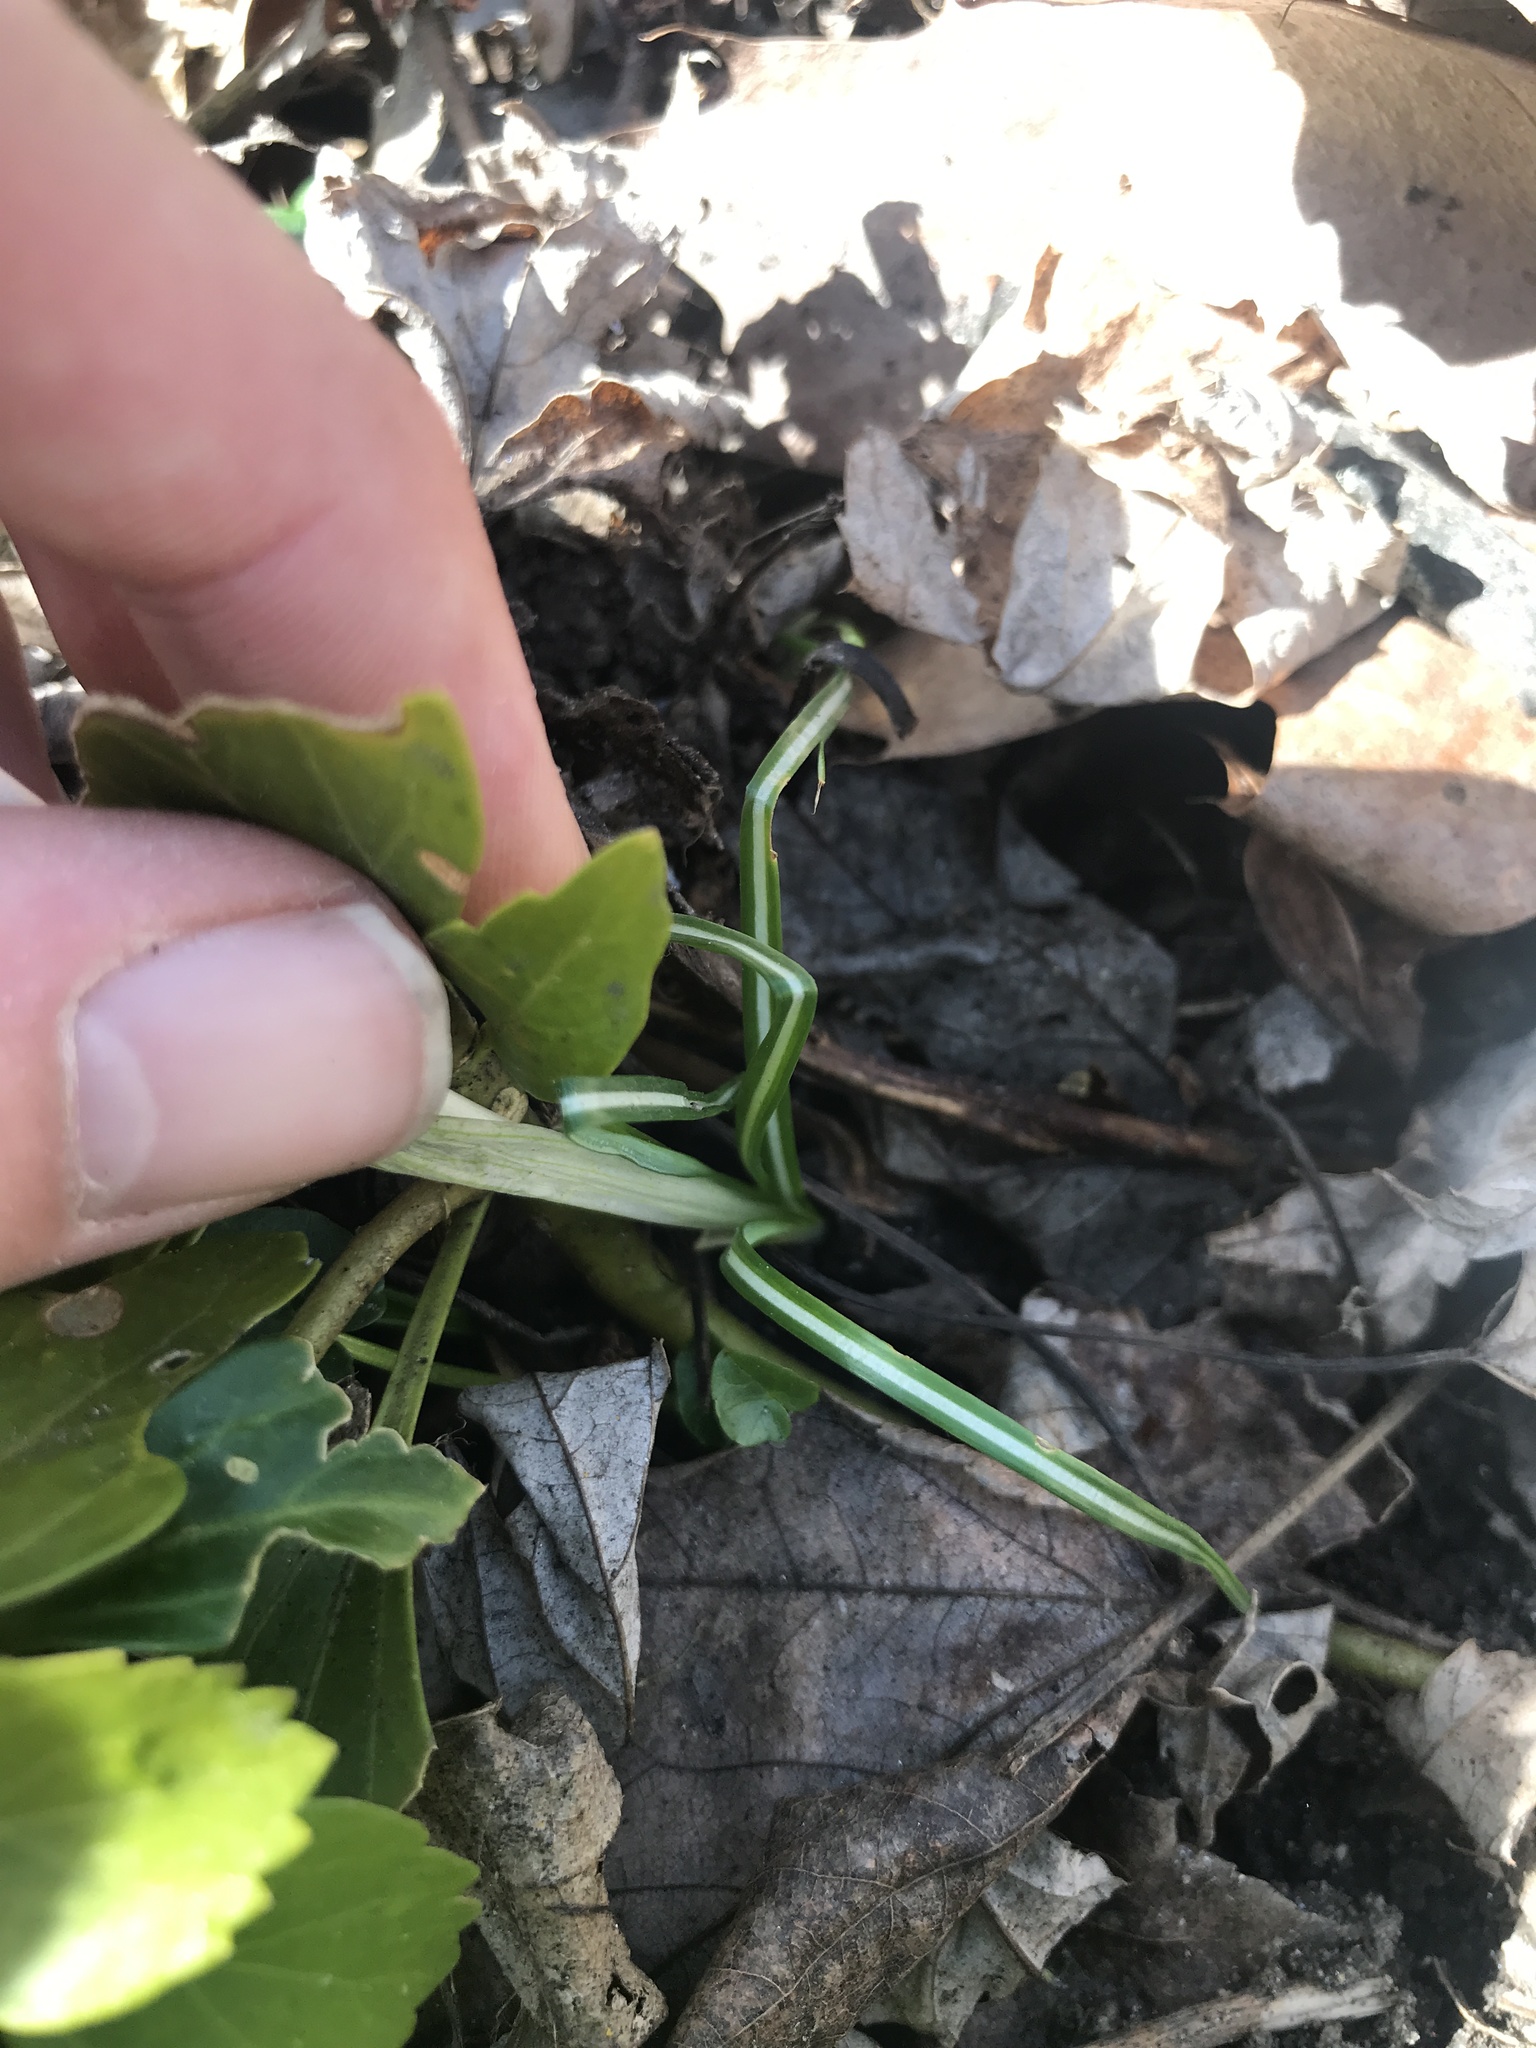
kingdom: Plantae
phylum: Tracheophyta
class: Liliopsida
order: Asparagales
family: Iridaceae
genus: Crocus
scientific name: Crocus tommasinianus
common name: Early crocus
